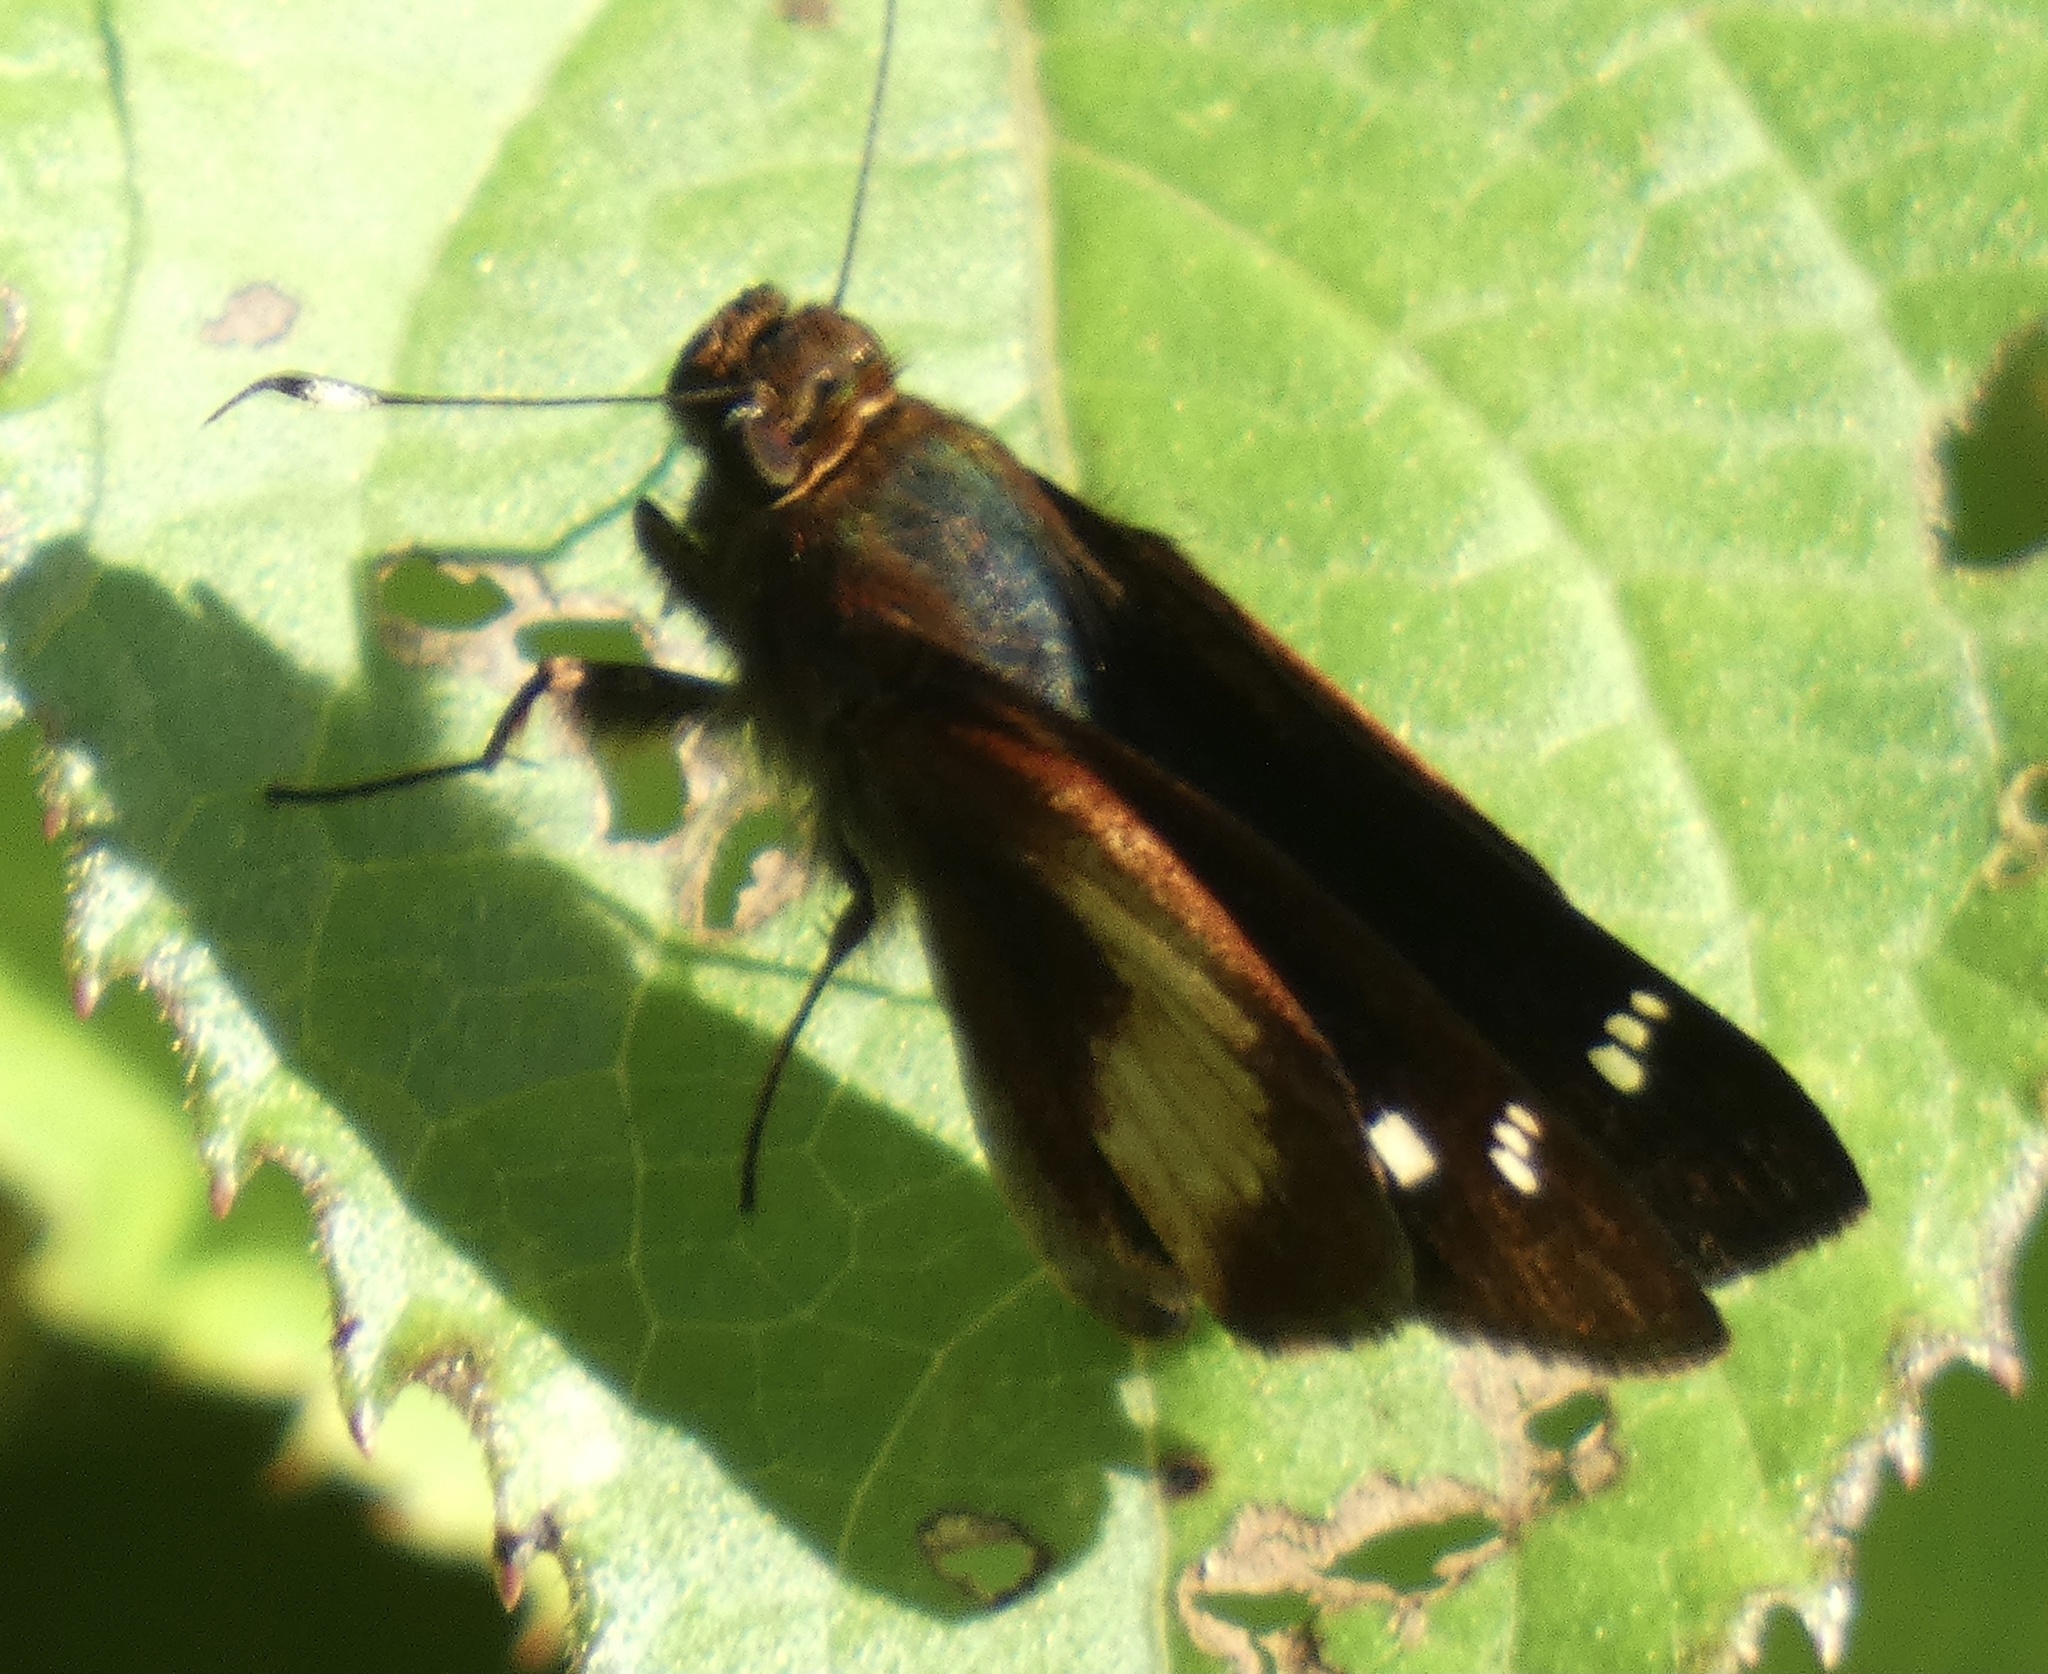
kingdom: Animalia
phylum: Arthropoda
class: Insecta
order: Lepidoptera
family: Hesperiidae
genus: Vettius
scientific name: Vettius ploetzii
